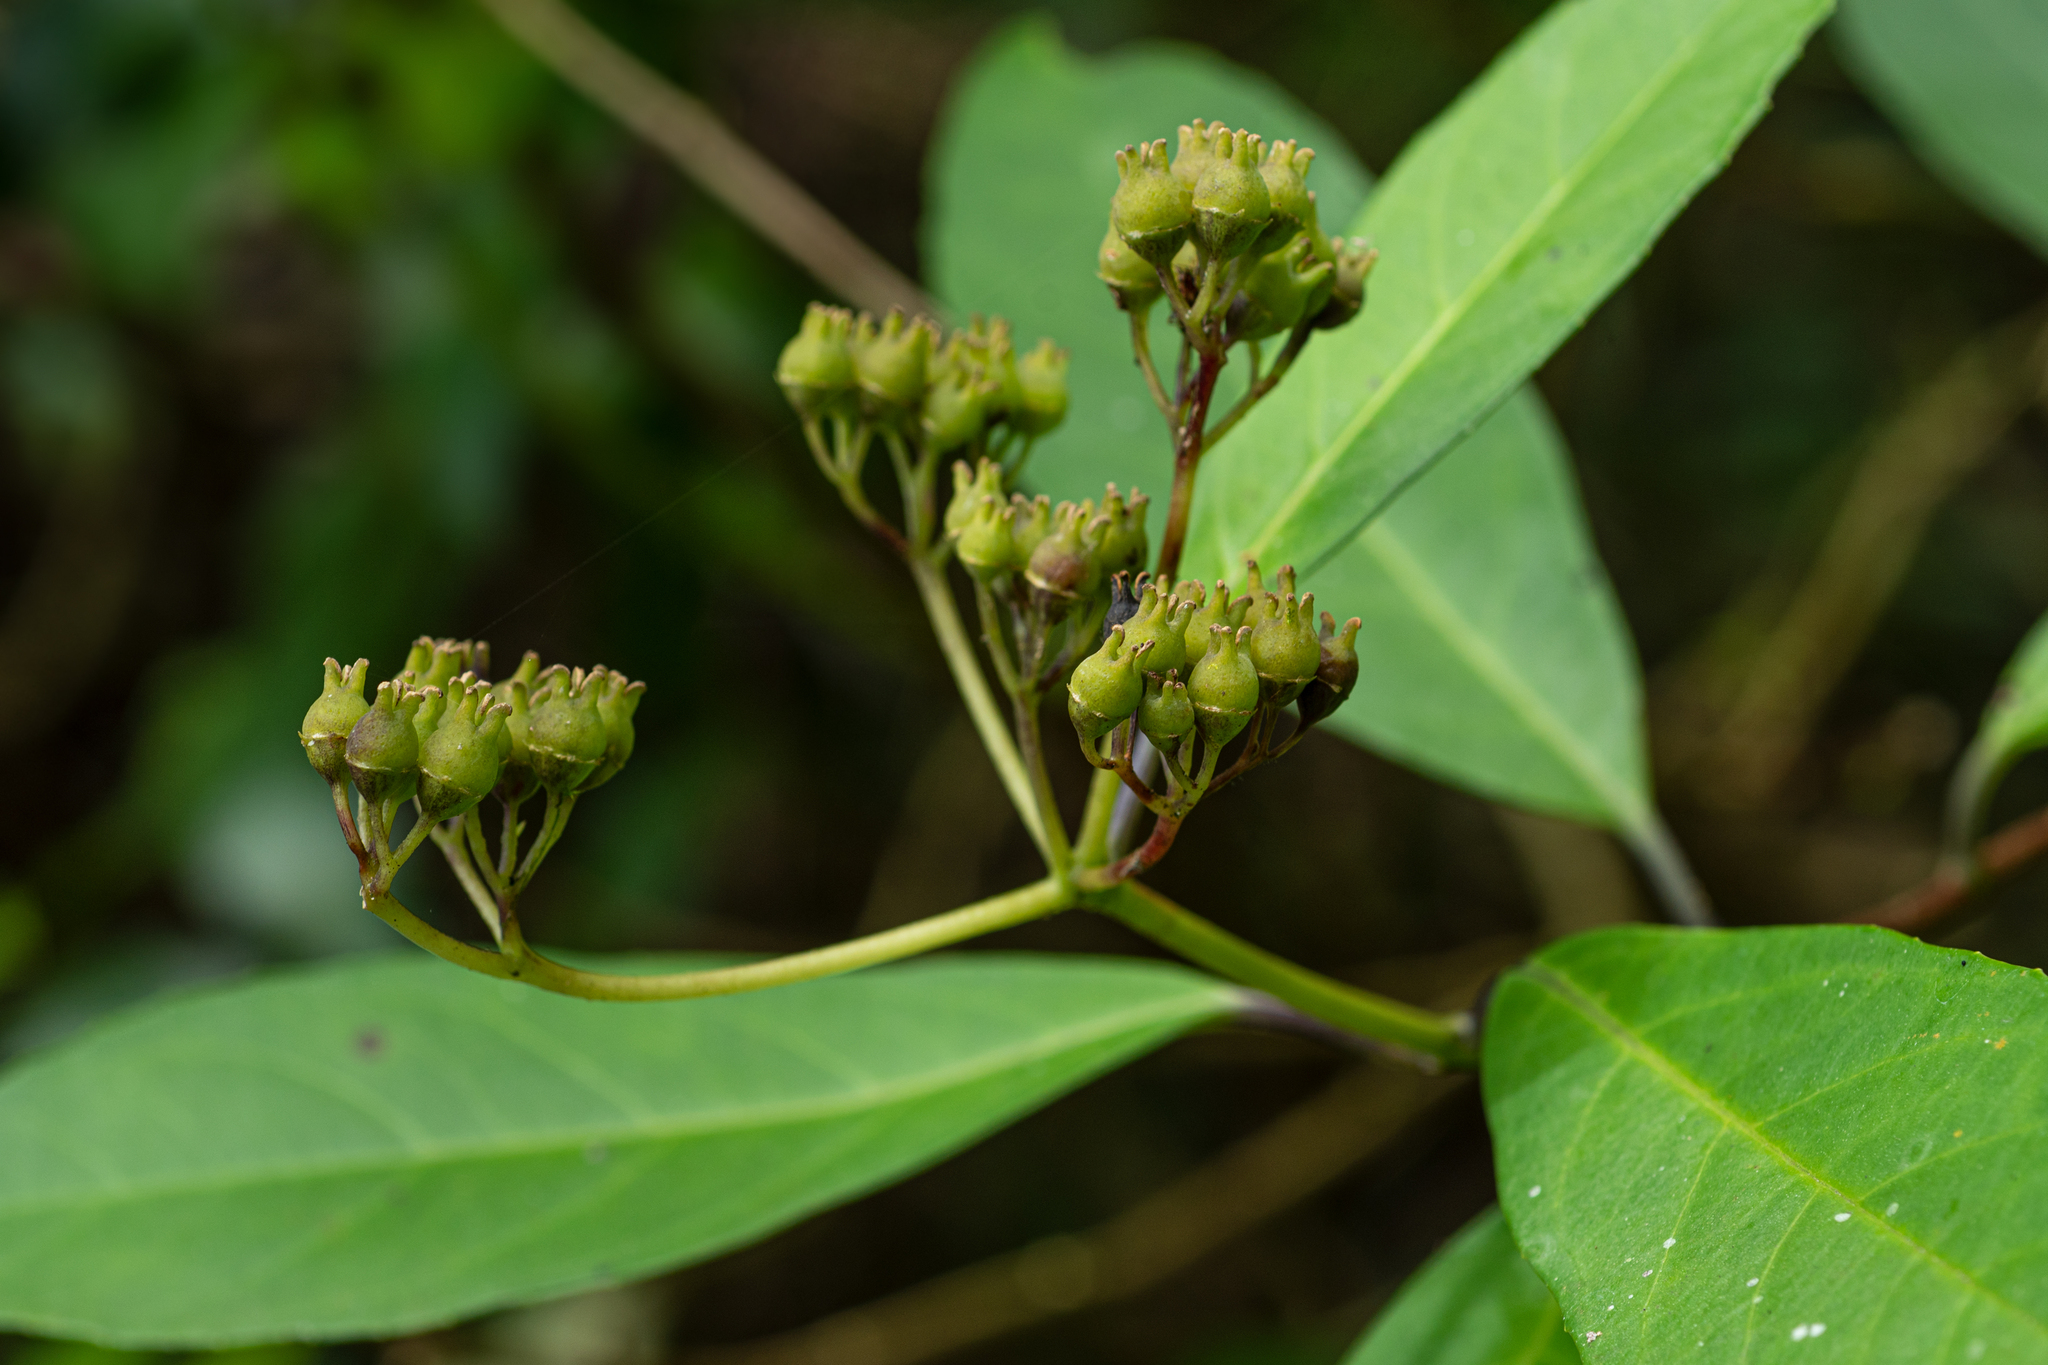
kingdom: Plantae
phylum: Tracheophyta
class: Magnoliopsida
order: Cornales
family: Hydrangeaceae
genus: Hydrangea
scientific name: Hydrangea chinensis
